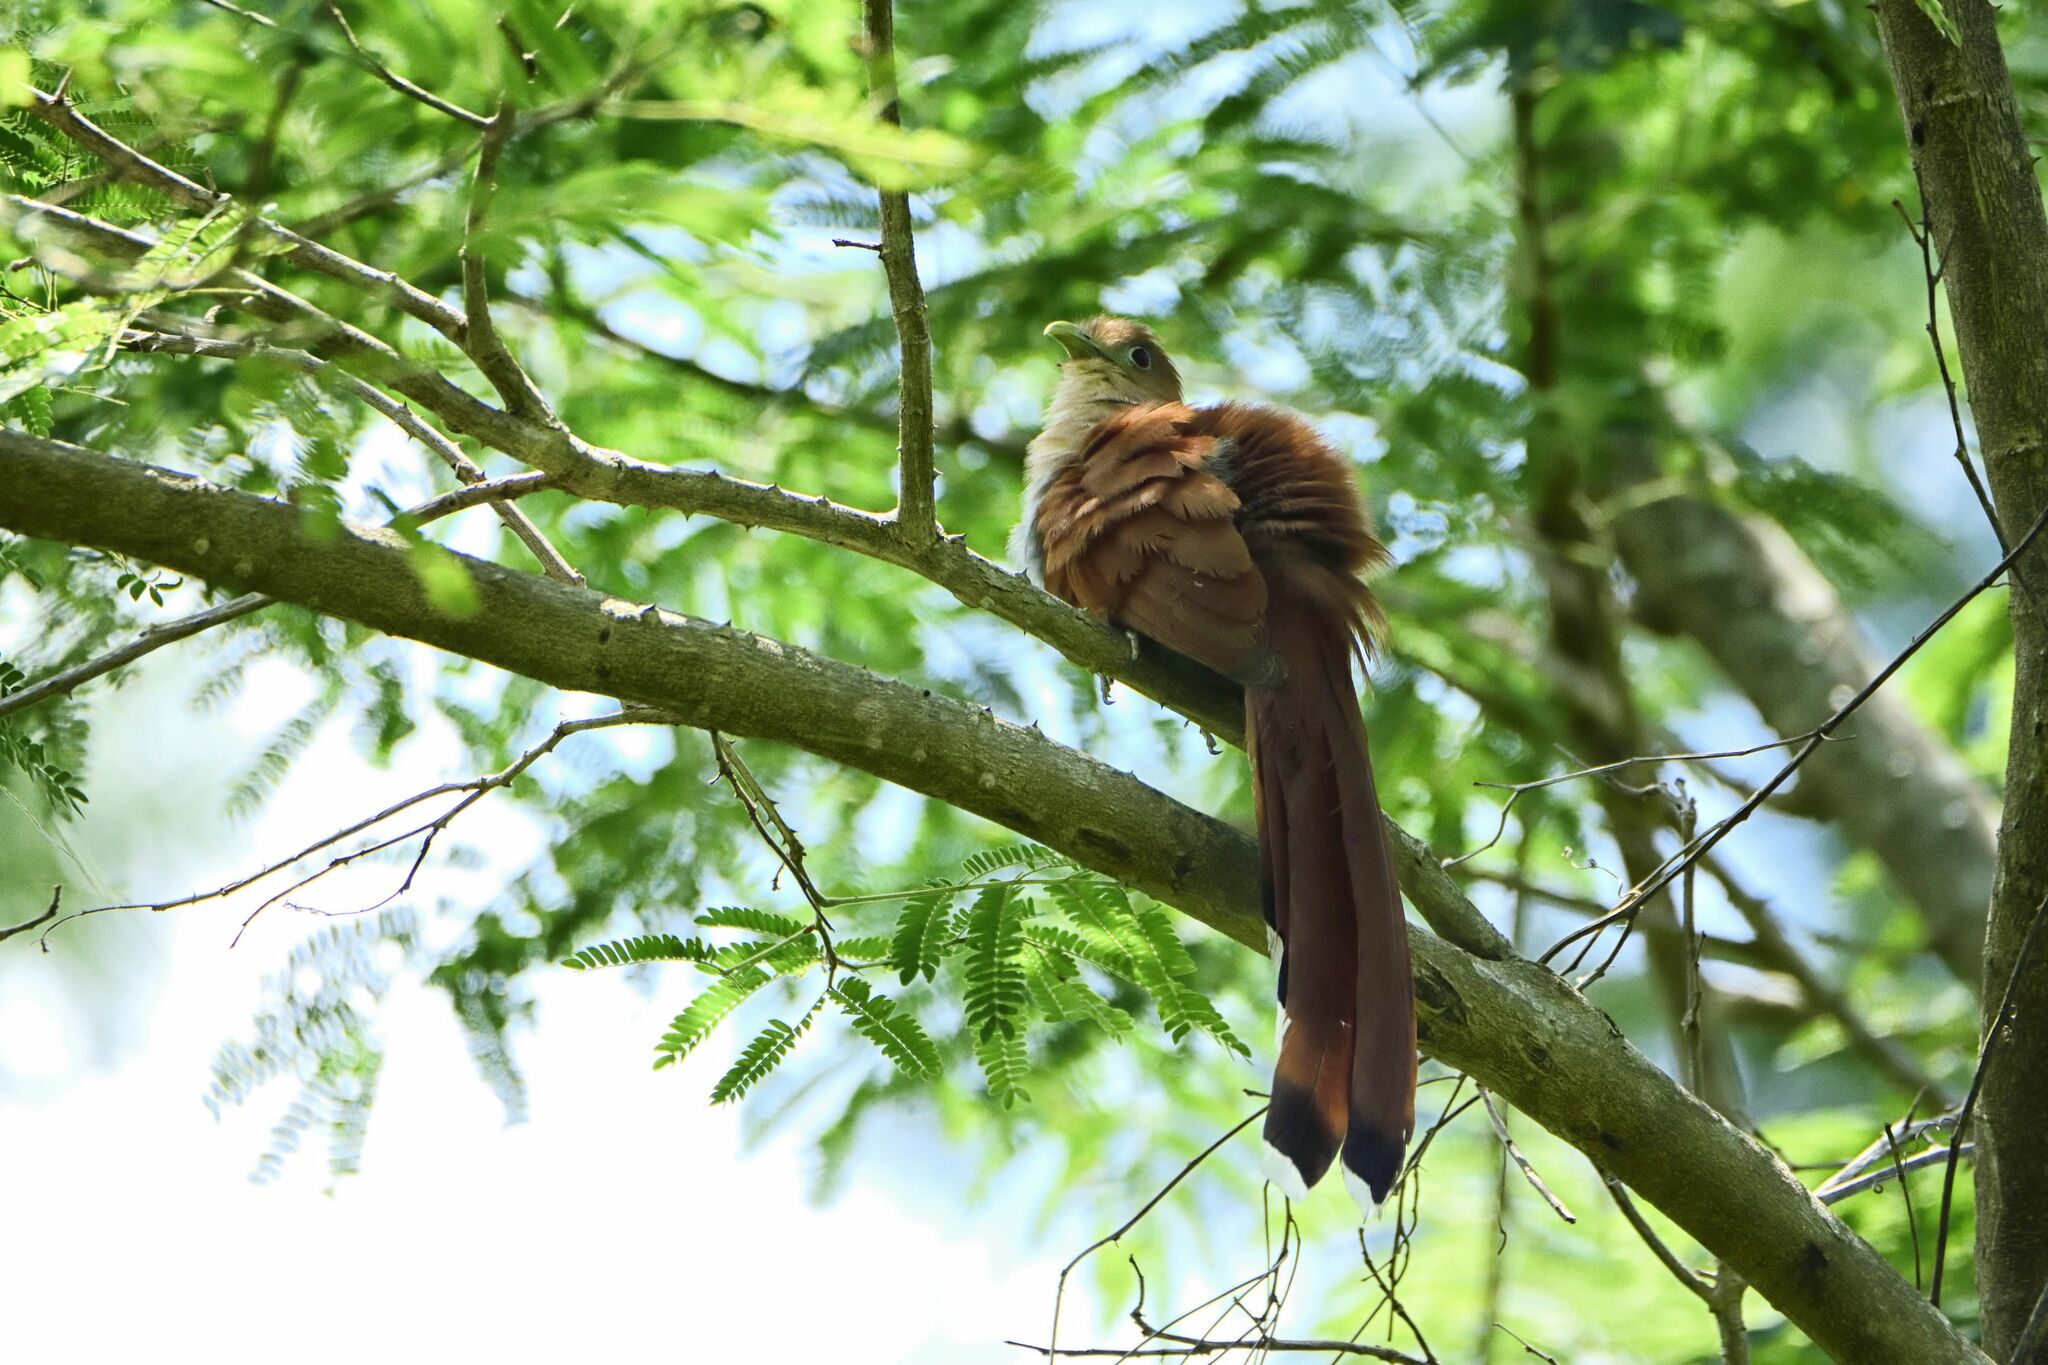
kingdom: Animalia
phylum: Chordata
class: Aves
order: Cuculiformes
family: Cuculidae
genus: Piaya
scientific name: Piaya cayana
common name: Squirrel cuckoo
